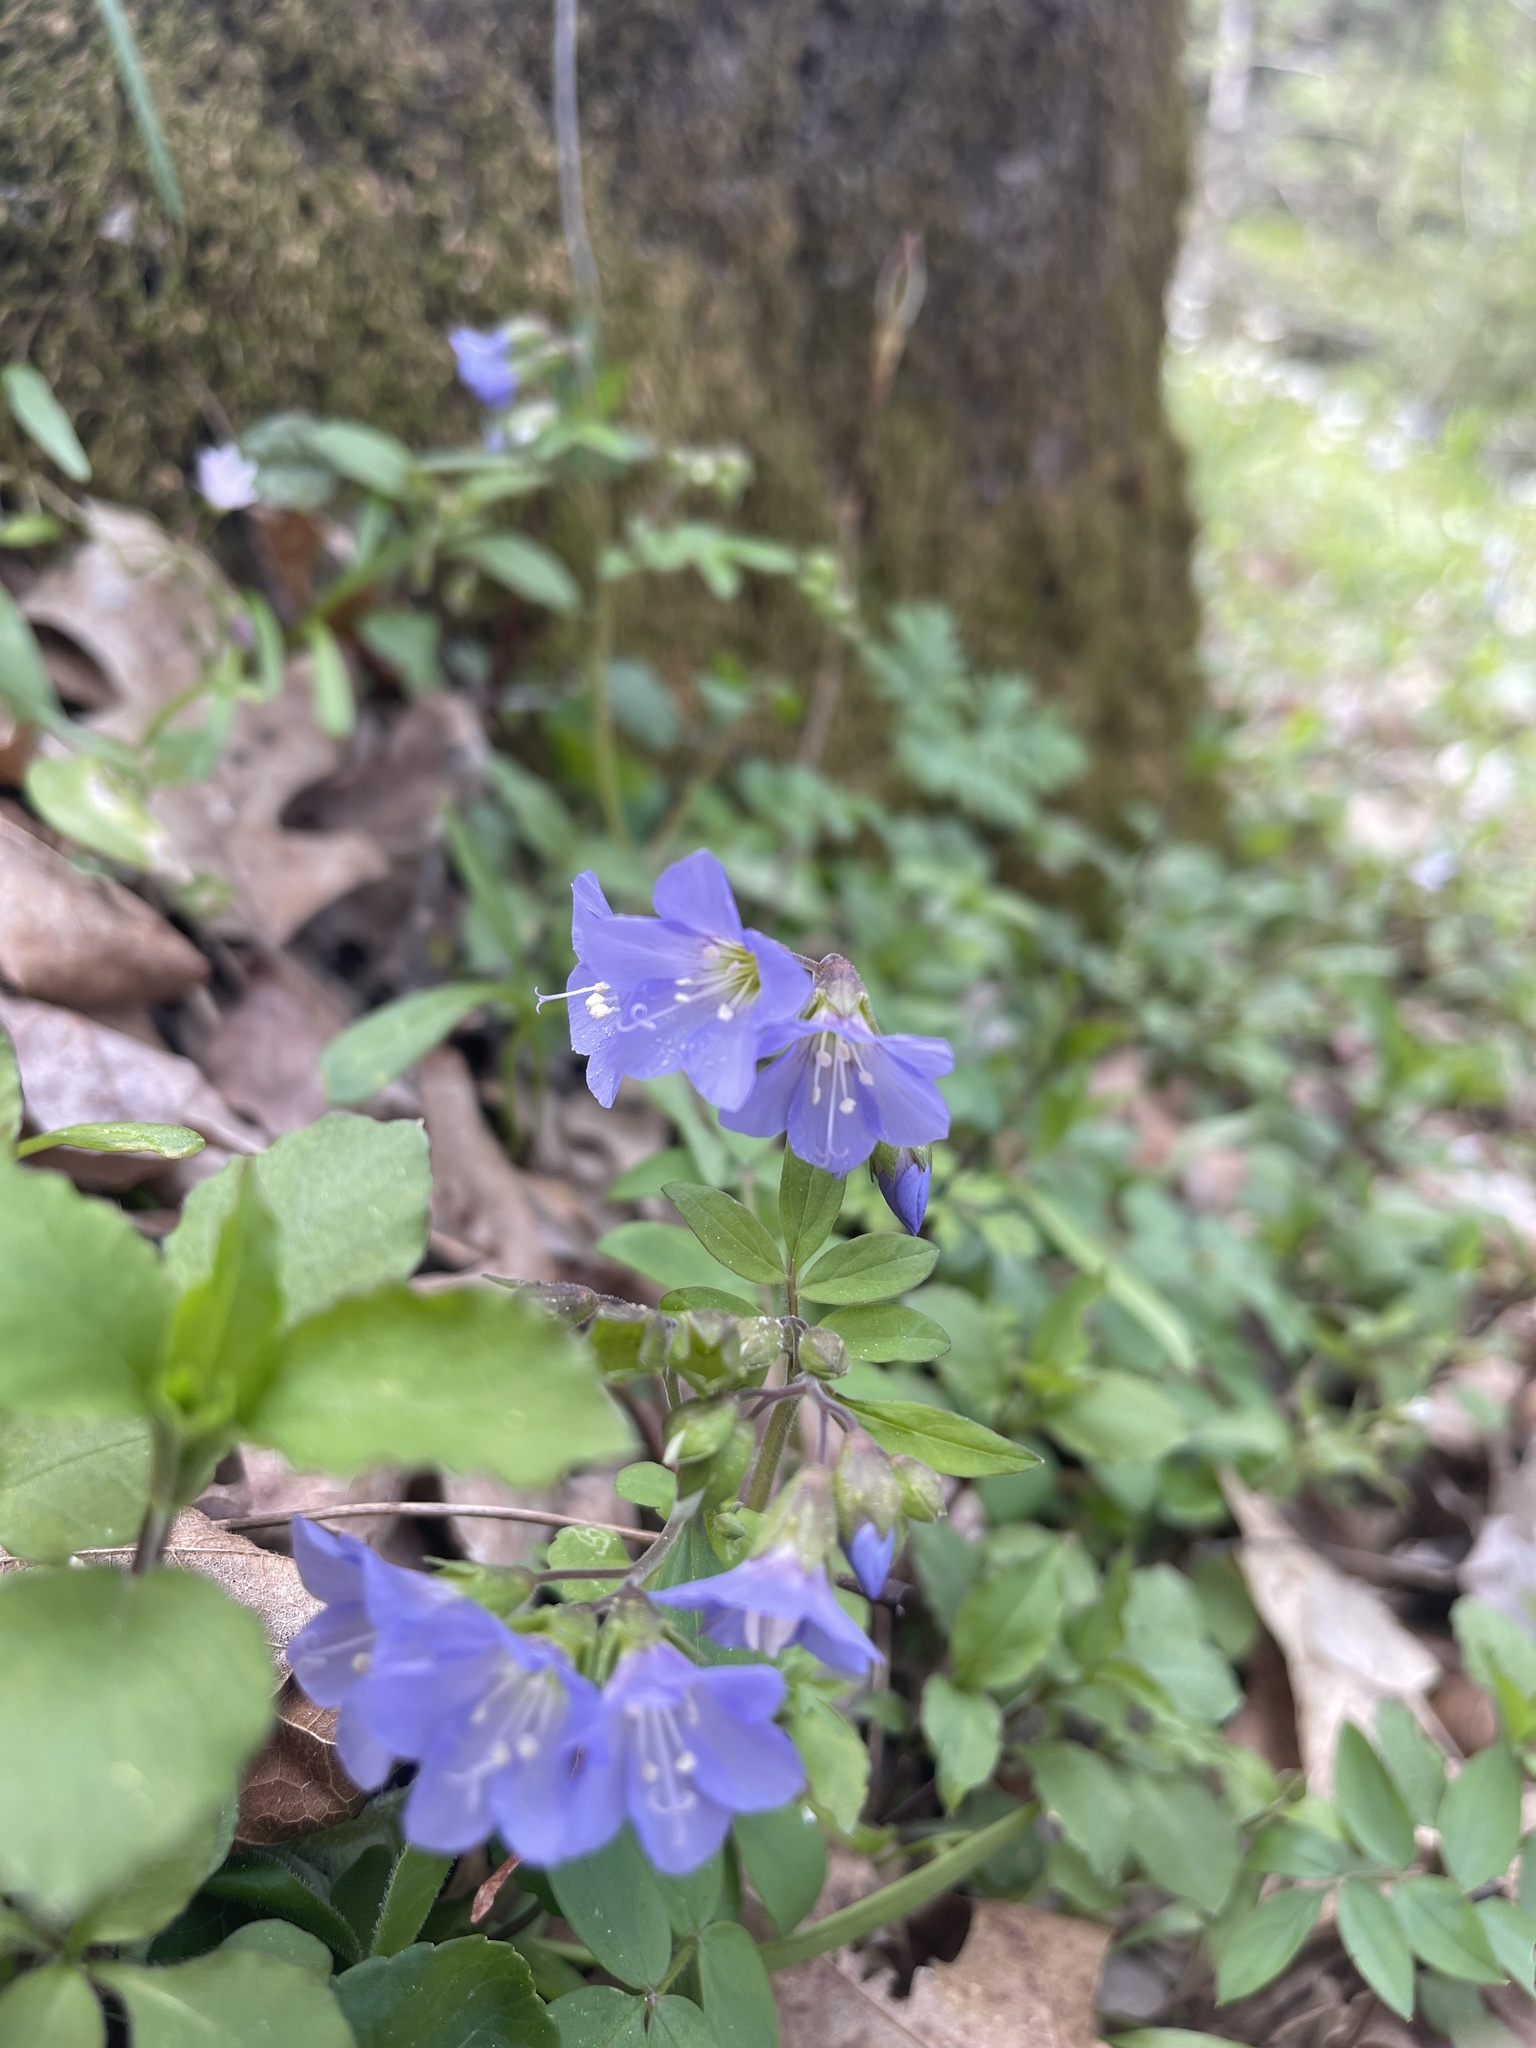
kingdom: Plantae
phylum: Tracheophyta
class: Magnoliopsida
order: Ericales
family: Polemoniaceae
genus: Polemonium
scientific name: Polemonium reptans
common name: Creeping jacob's-ladder
